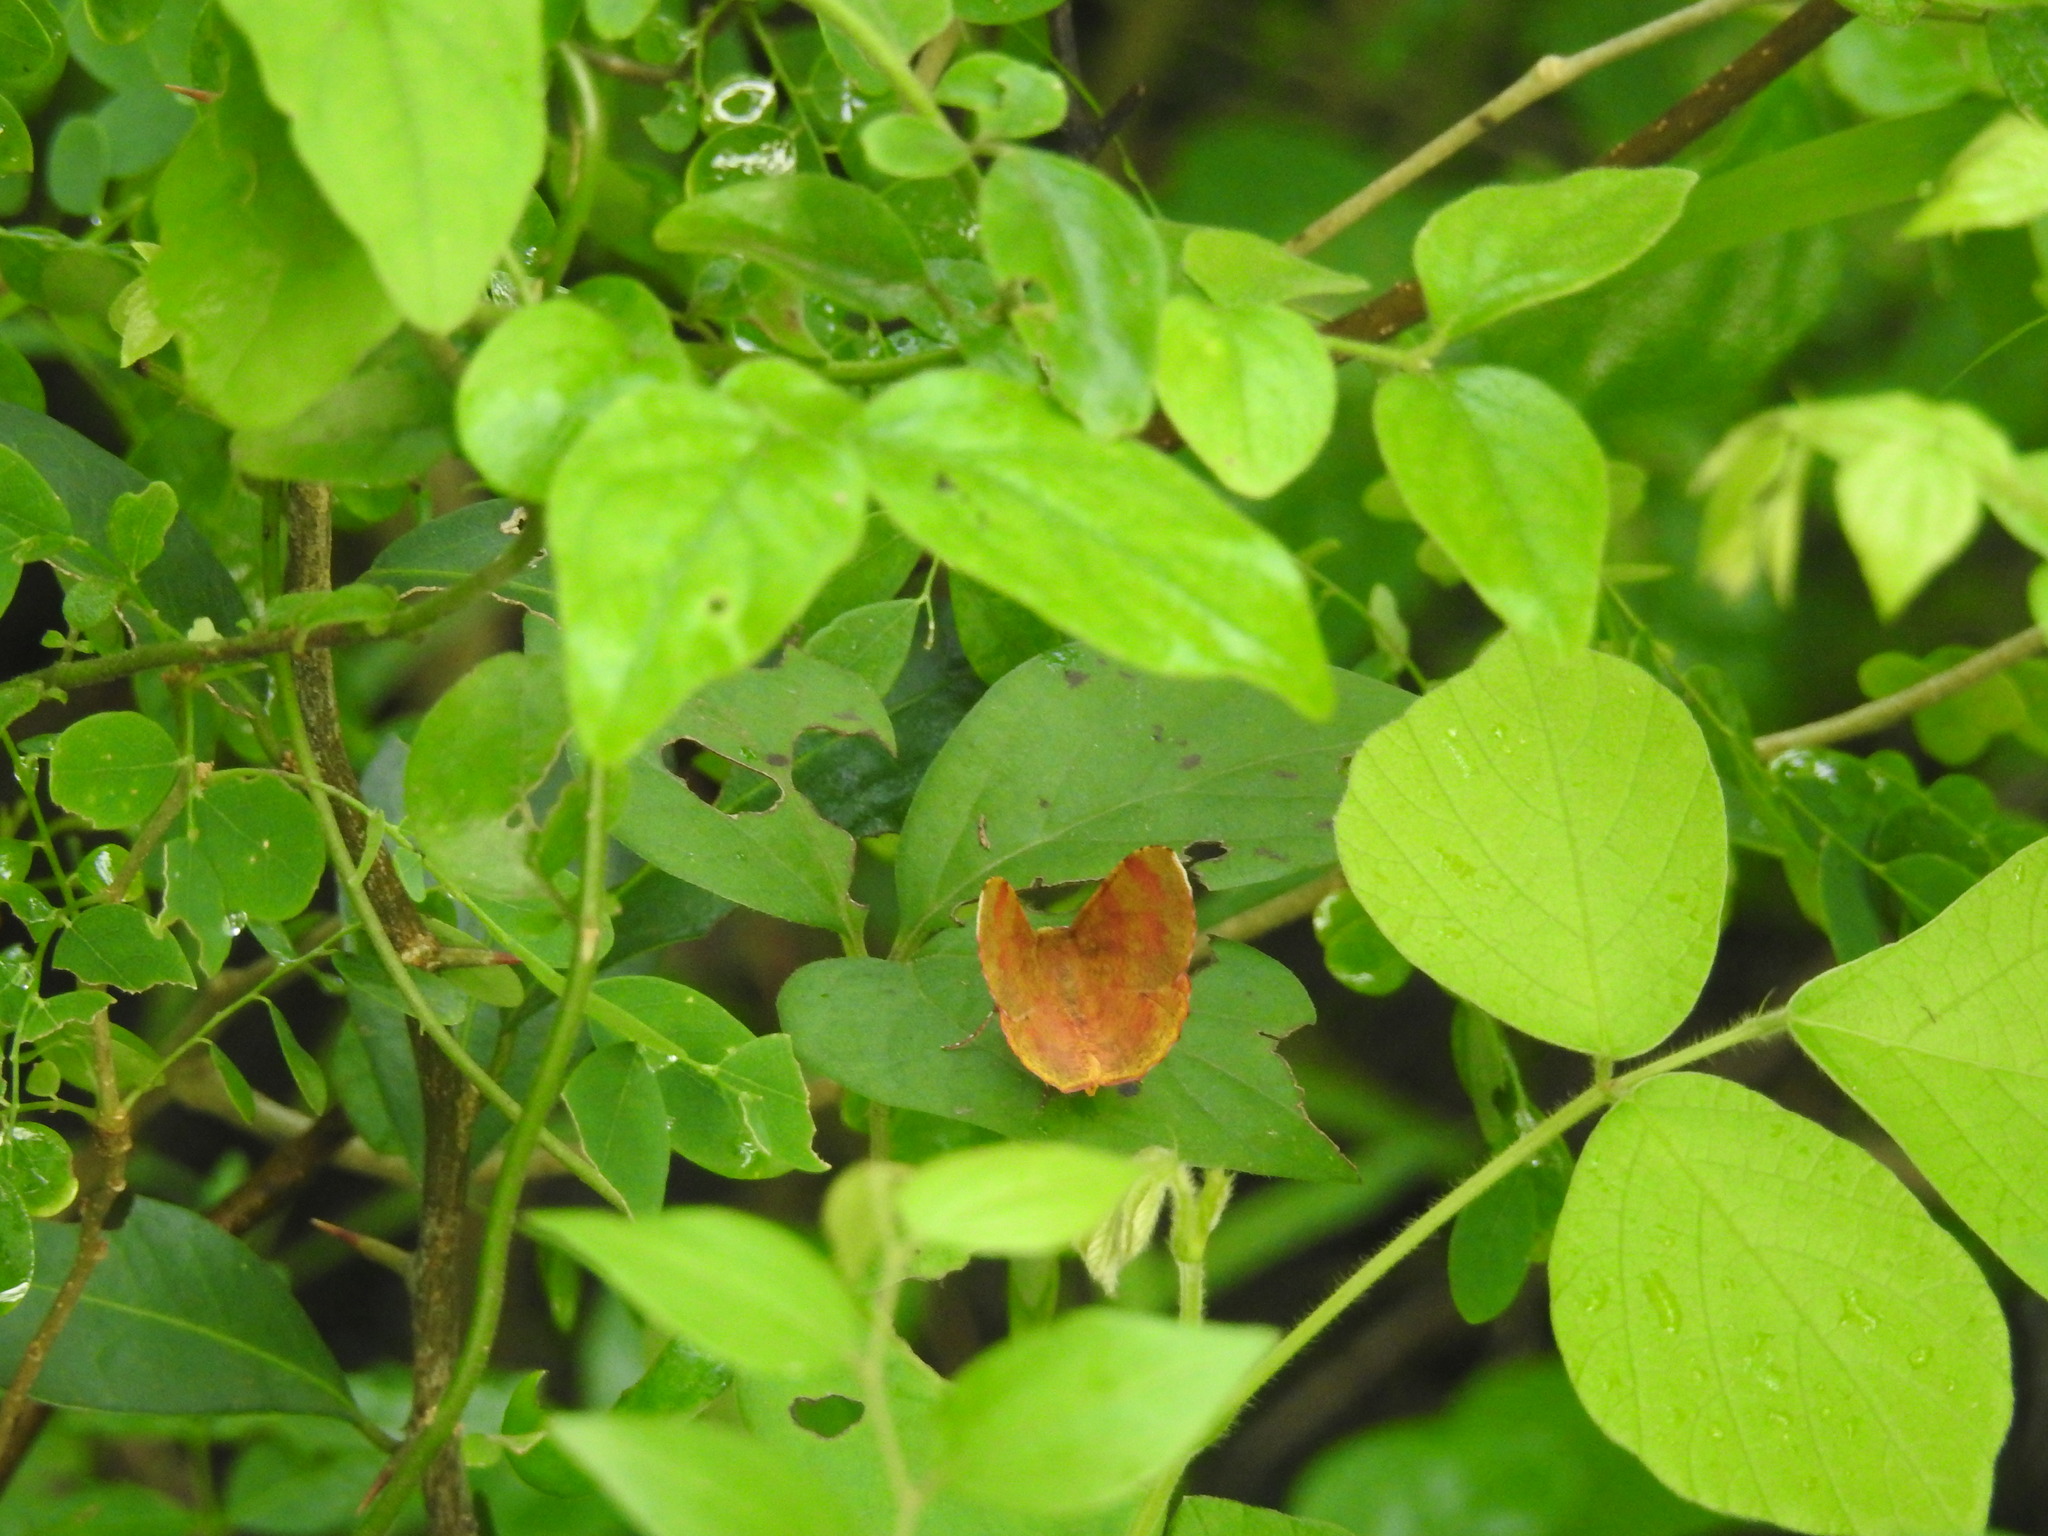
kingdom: Animalia
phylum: Arthropoda
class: Insecta
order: Lepidoptera
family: Geometridae
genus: Hyperythra
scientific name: Hyperythra lutea
